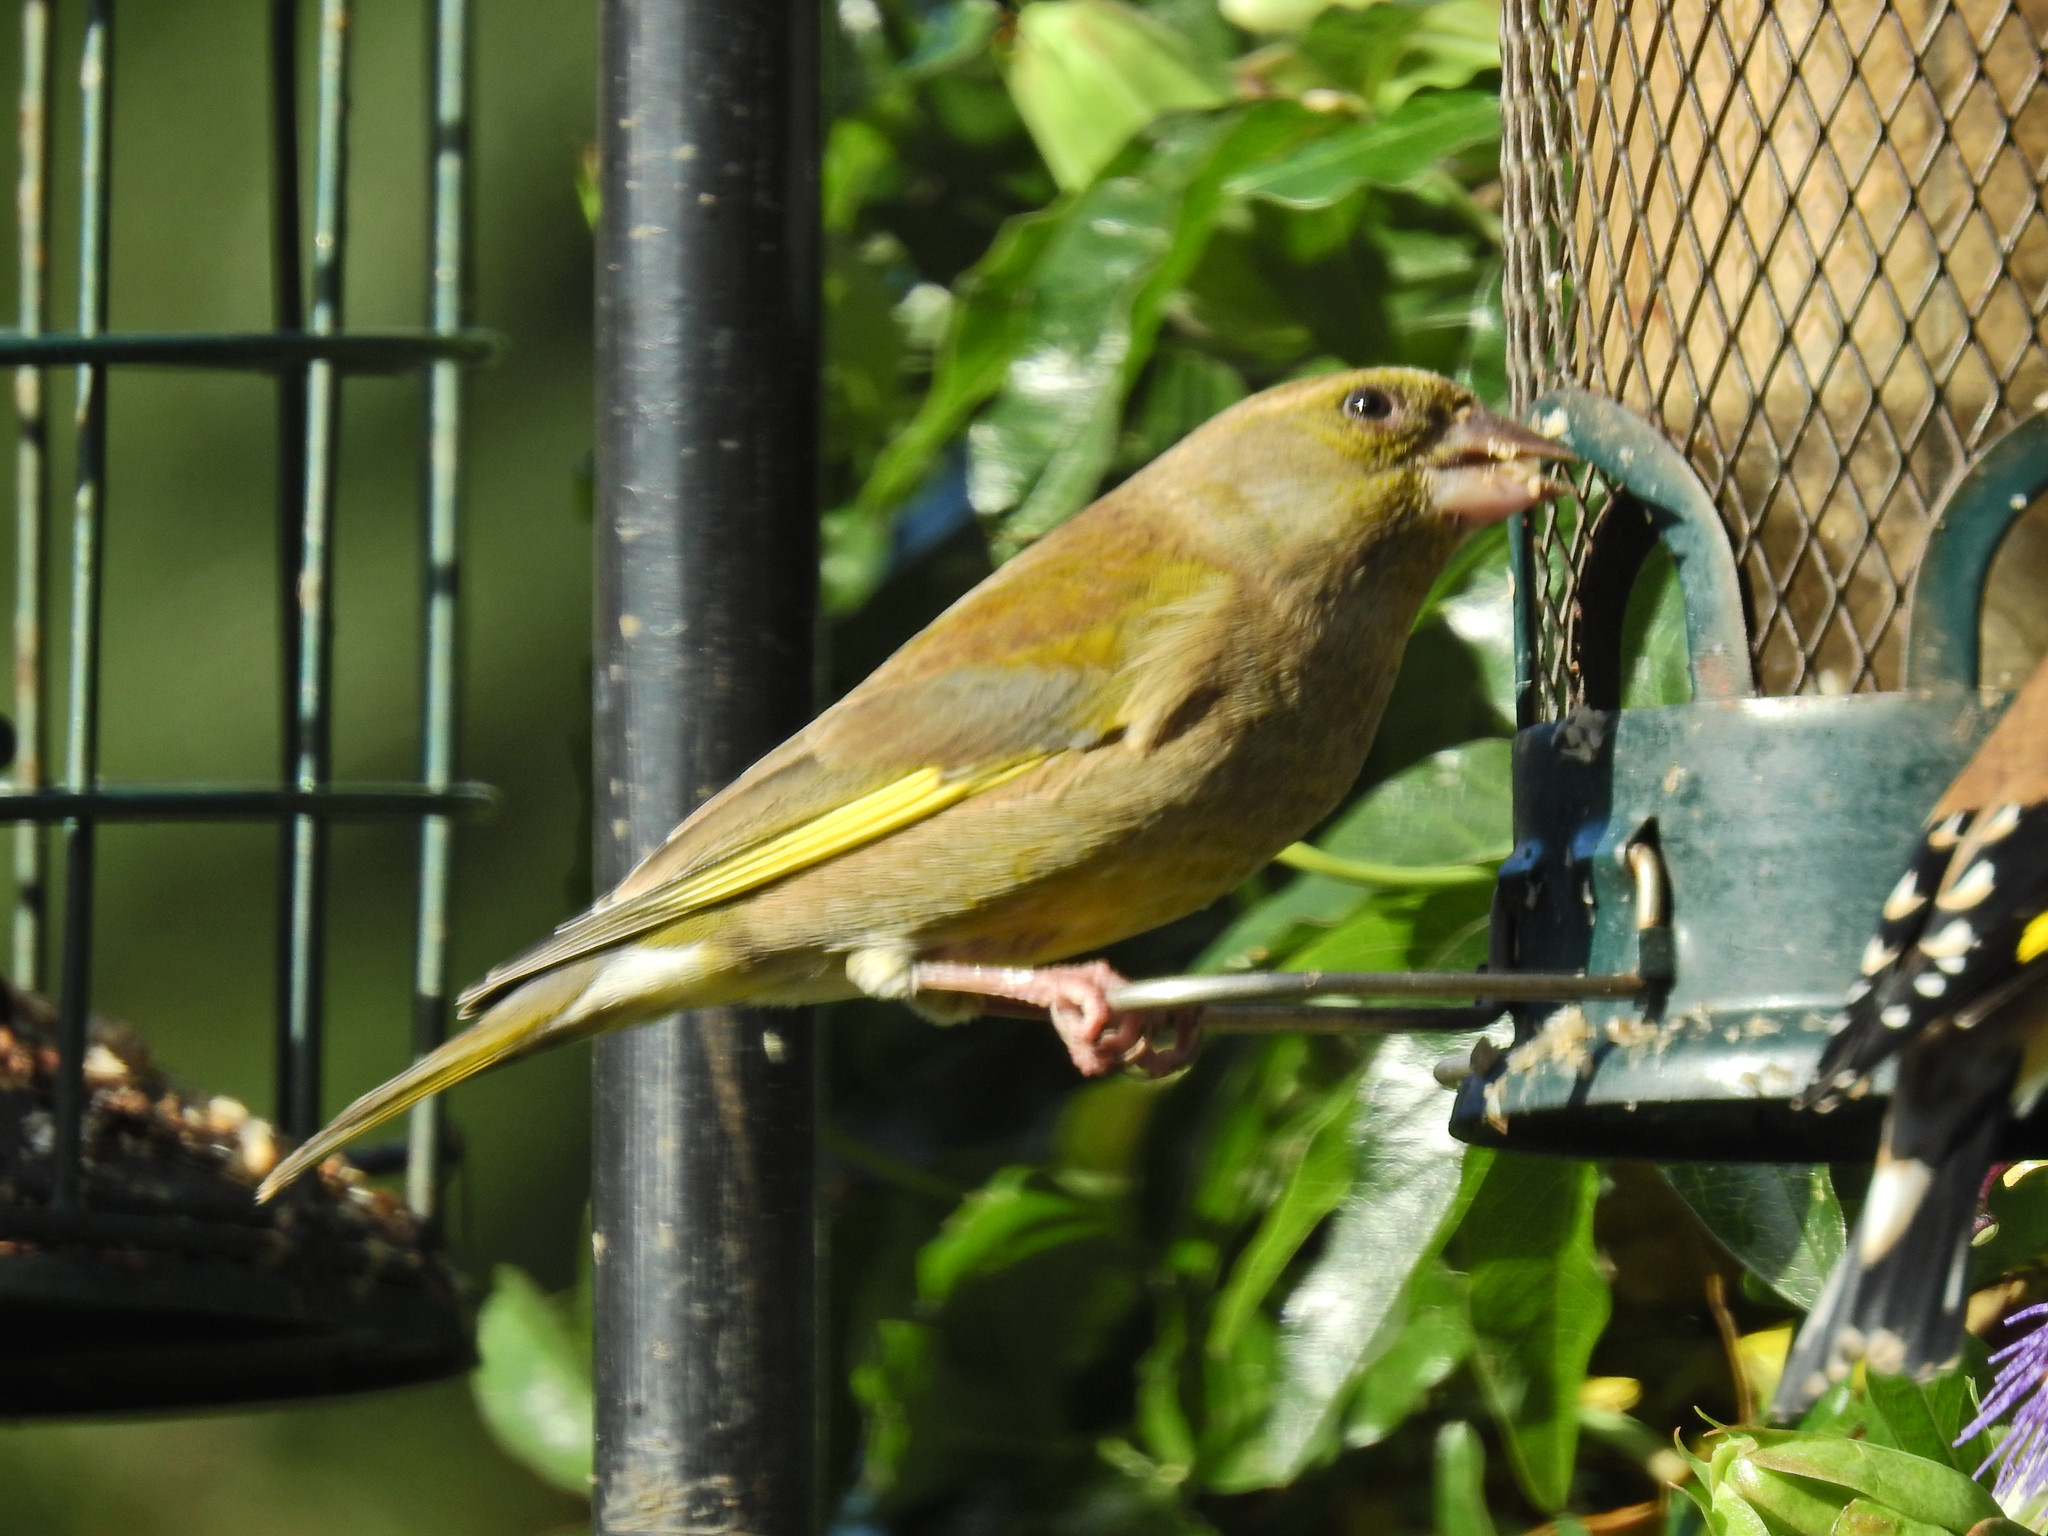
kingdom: Plantae
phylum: Tracheophyta
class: Liliopsida
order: Poales
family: Poaceae
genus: Chloris
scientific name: Chloris chloris
